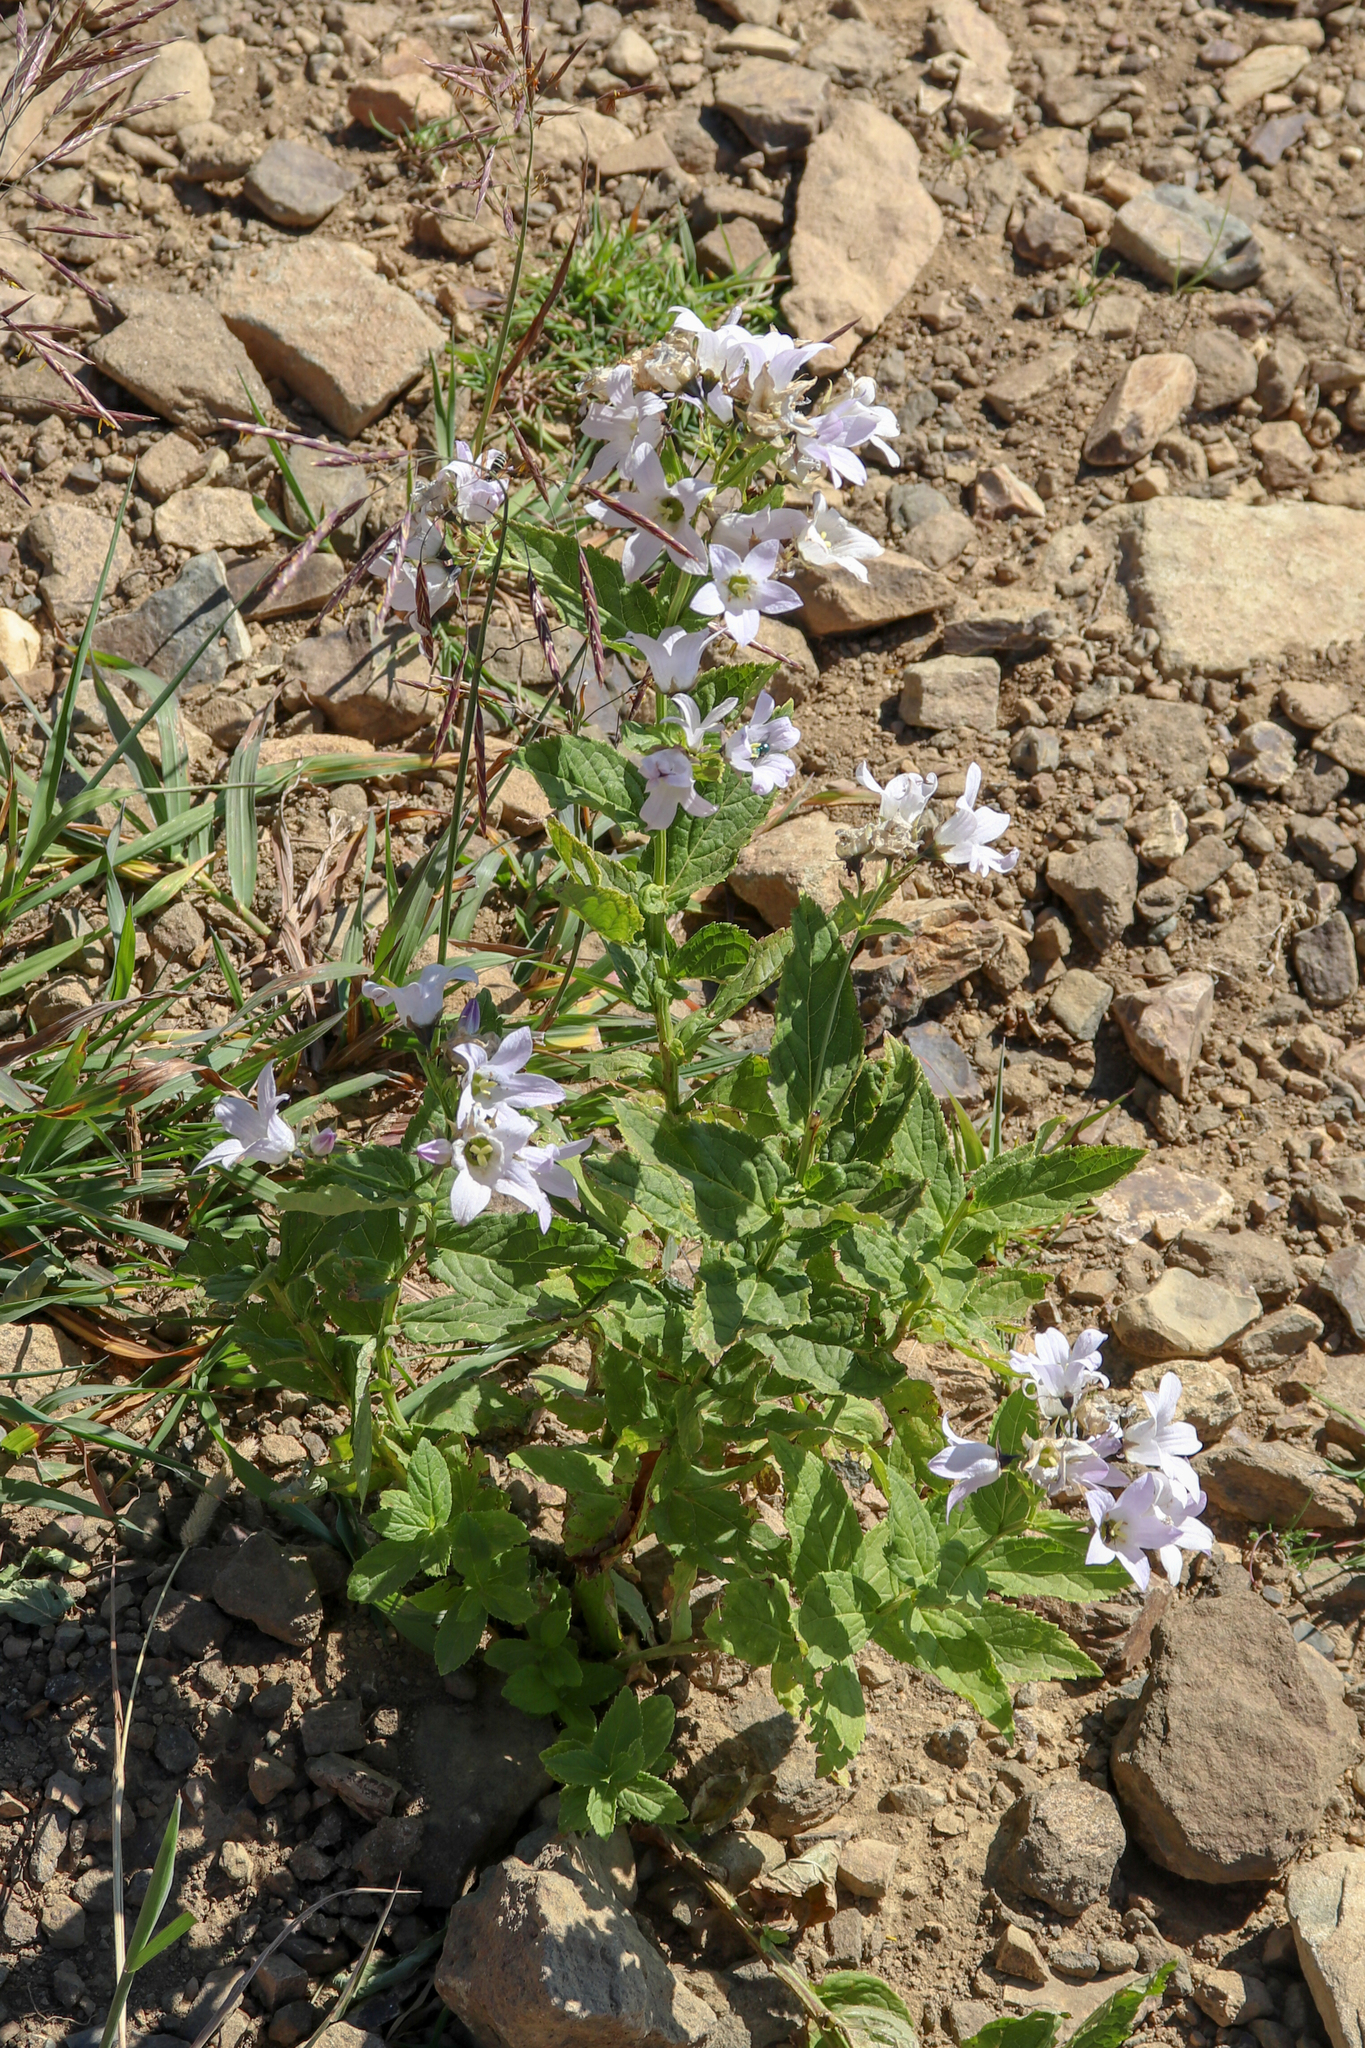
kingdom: Plantae
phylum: Tracheophyta
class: Magnoliopsida
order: Asterales
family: Campanulaceae
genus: Campanula
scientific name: Campanula lactiflora
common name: Milky bellflower
